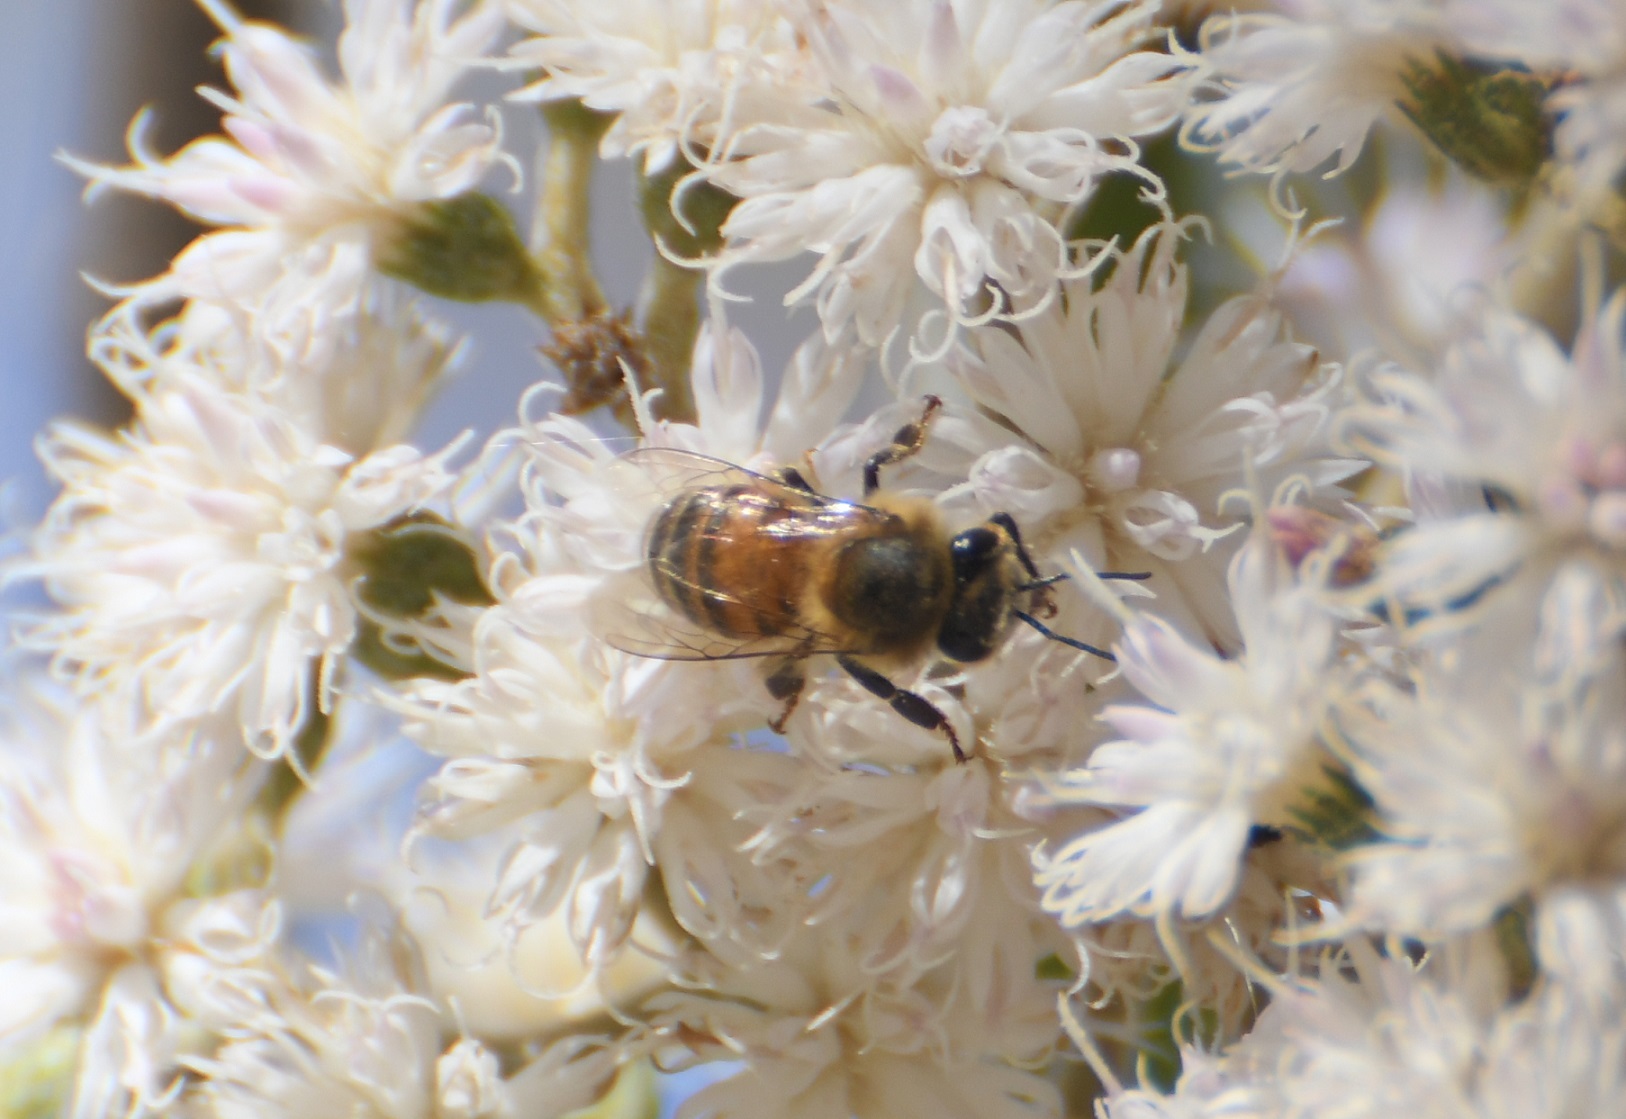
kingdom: Plantae
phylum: Tracheophyta
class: Magnoliopsida
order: Asterales
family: Asteraceae
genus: Vernonanthura
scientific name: Vernonanthura patens
